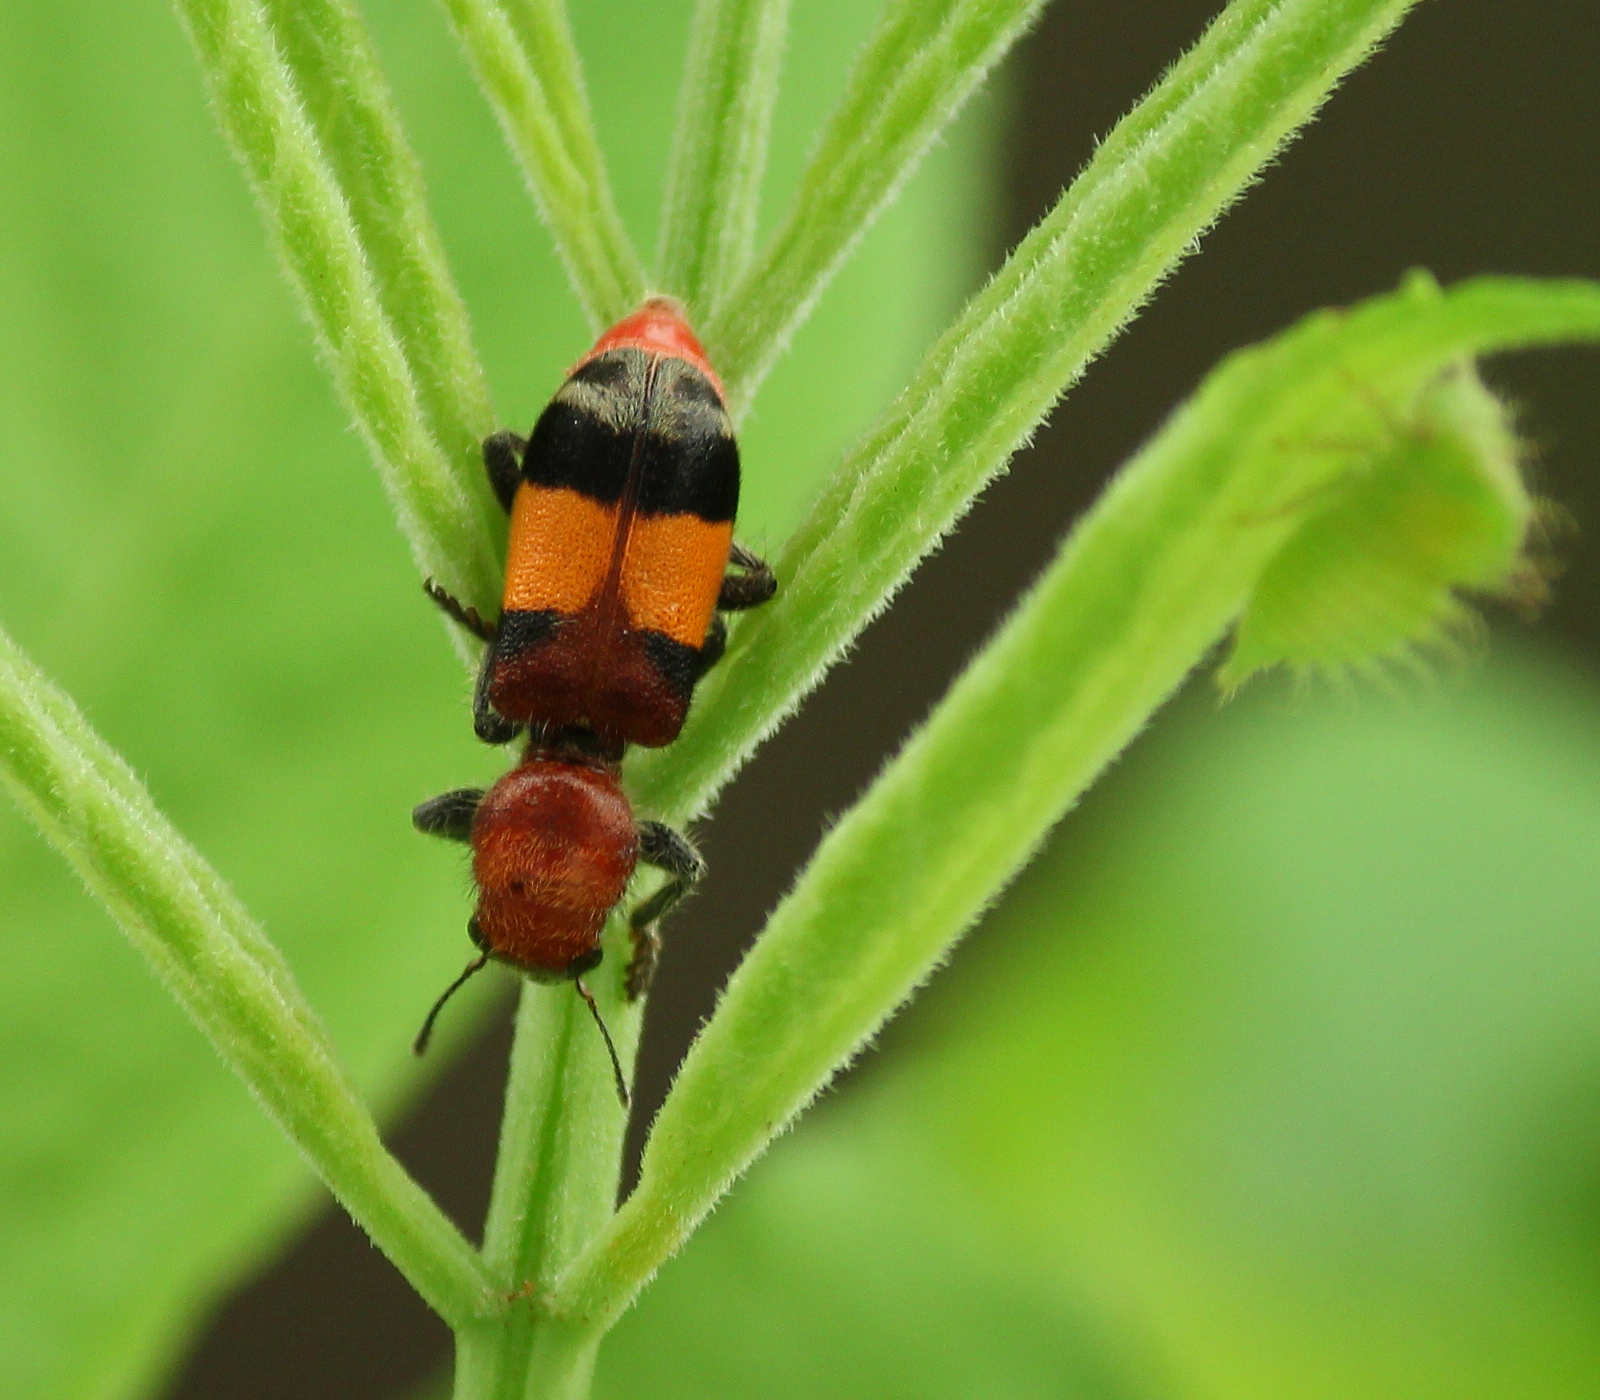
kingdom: Animalia
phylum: Arthropoda
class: Insecta
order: Coleoptera
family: Cleridae
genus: Enoclerus
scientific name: Enoclerus ichneumoneus
